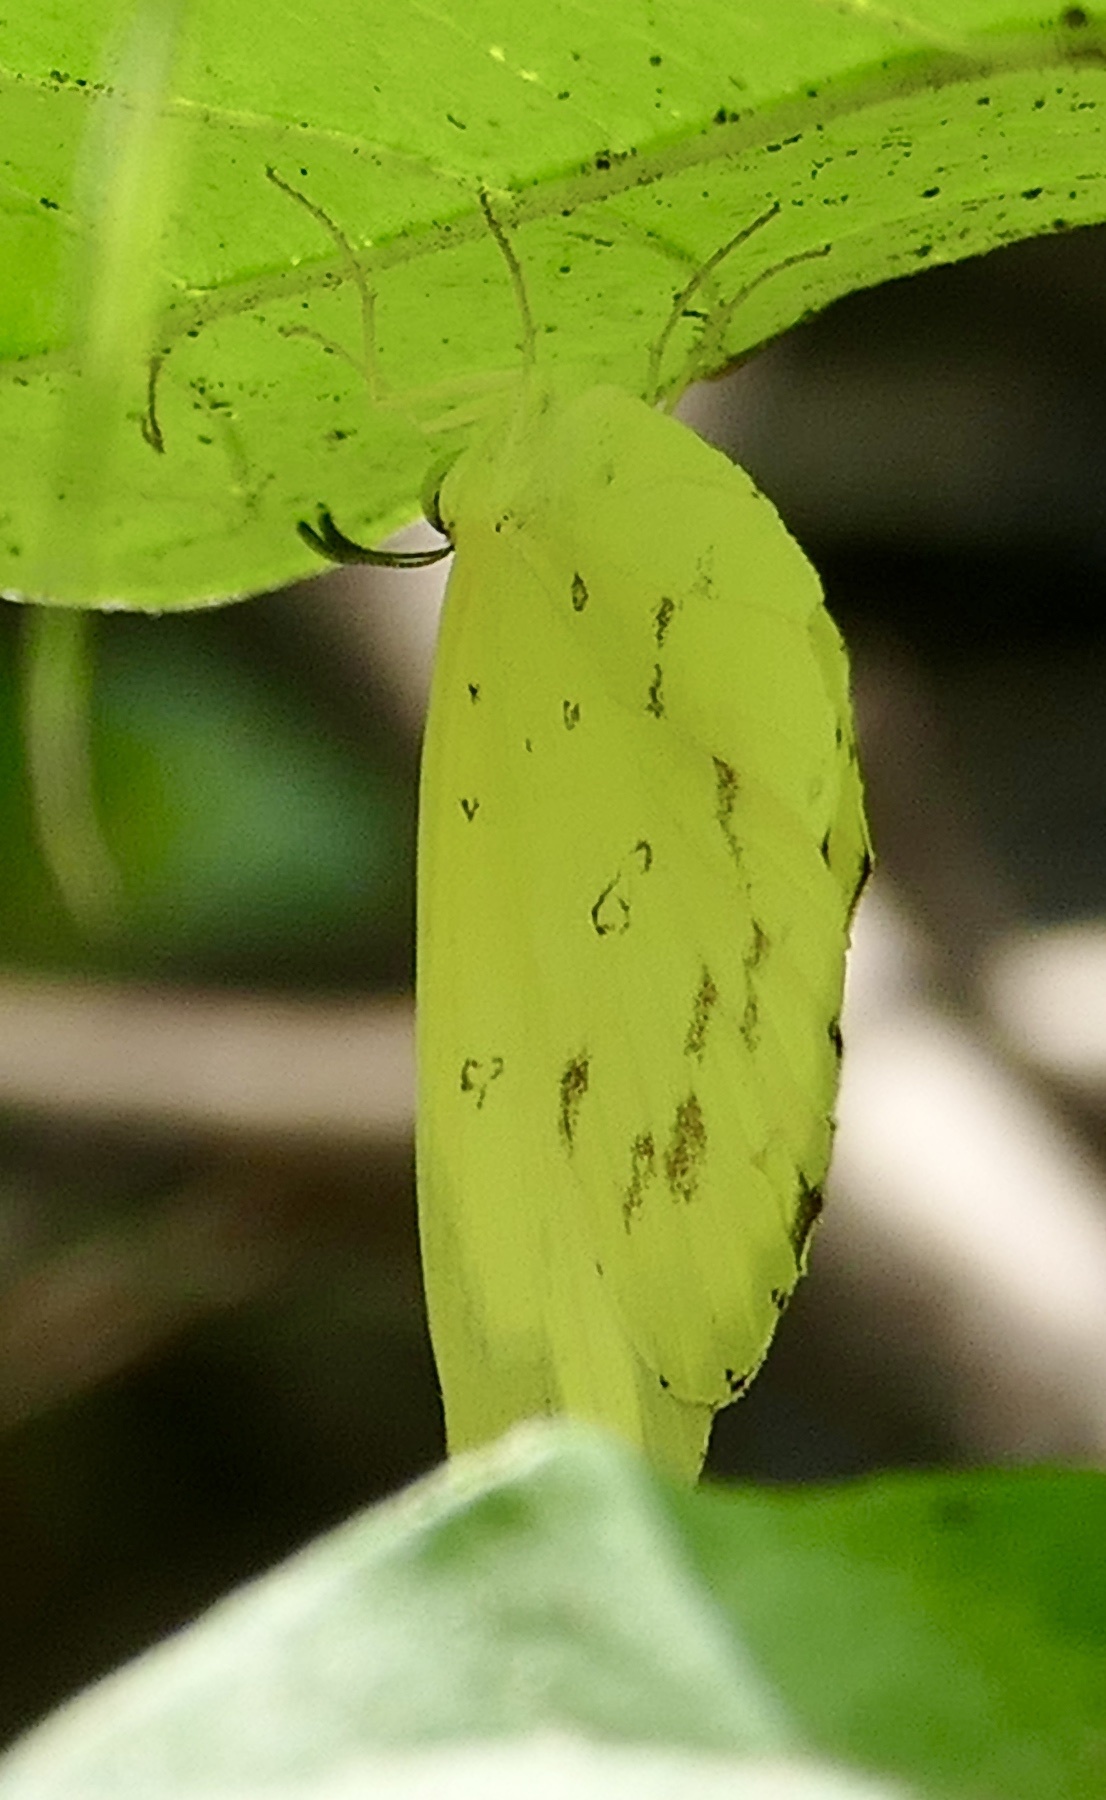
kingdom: Animalia
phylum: Arthropoda
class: Insecta
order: Lepidoptera
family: Pieridae
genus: Eurema
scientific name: Eurema senegalensis
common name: Forest grass yellow
